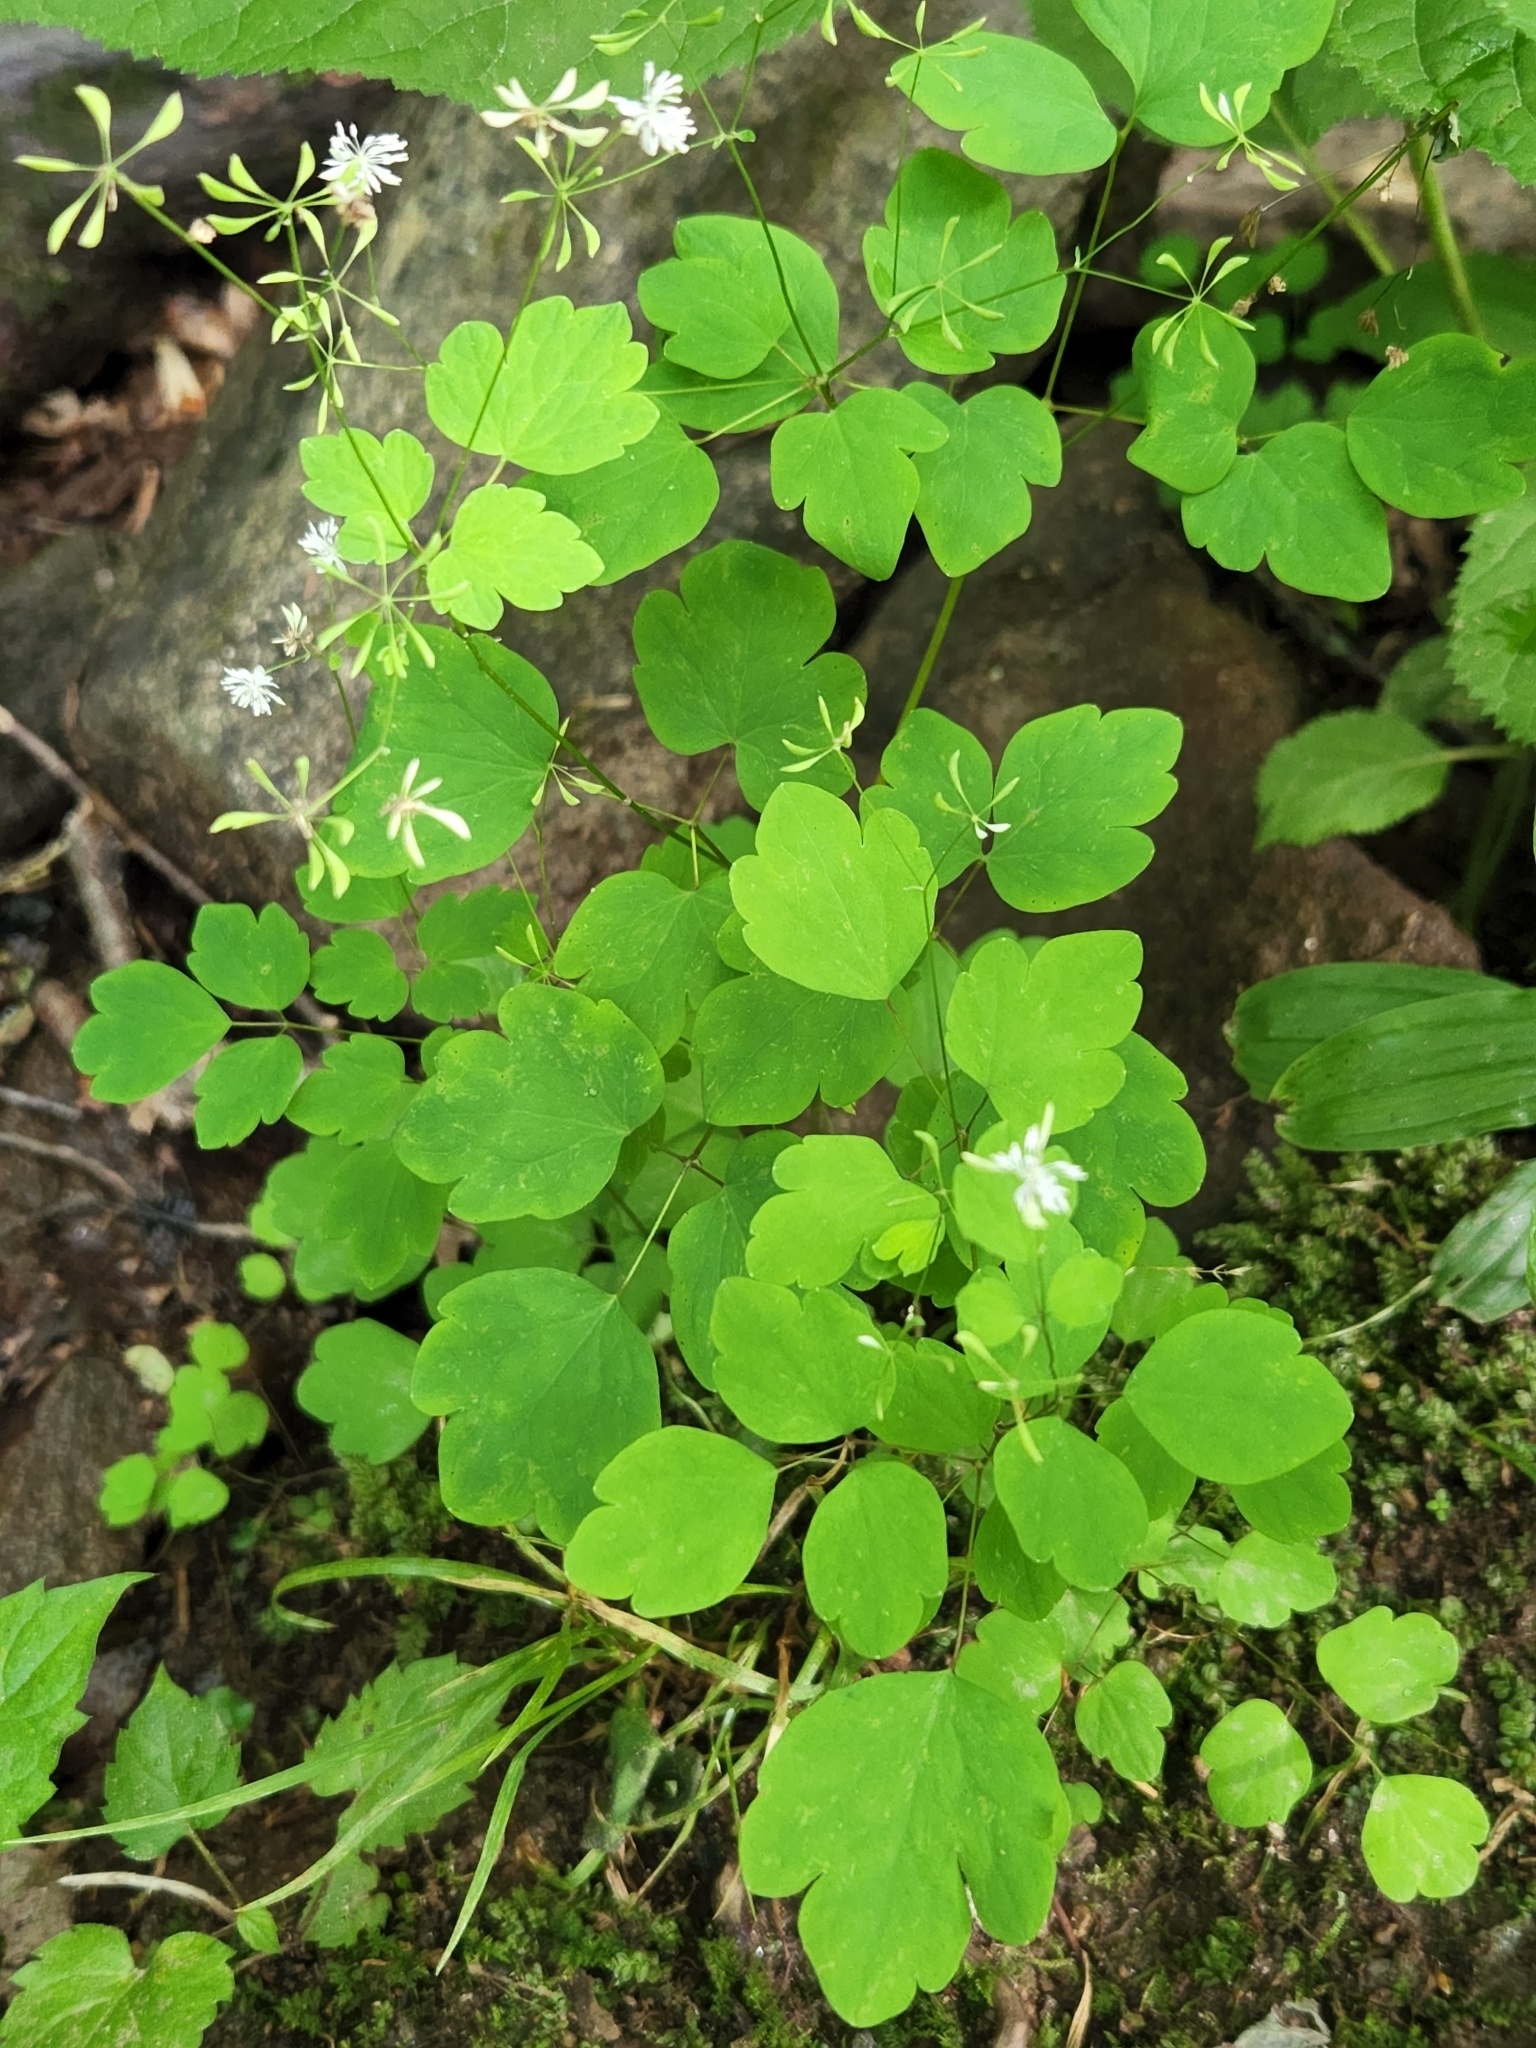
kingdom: Plantae
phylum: Tracheophyta
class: Magnoliopsida
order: Ranunculales
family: Ranunculaceae
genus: Thalictrum
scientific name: Thalictrum clavatum
